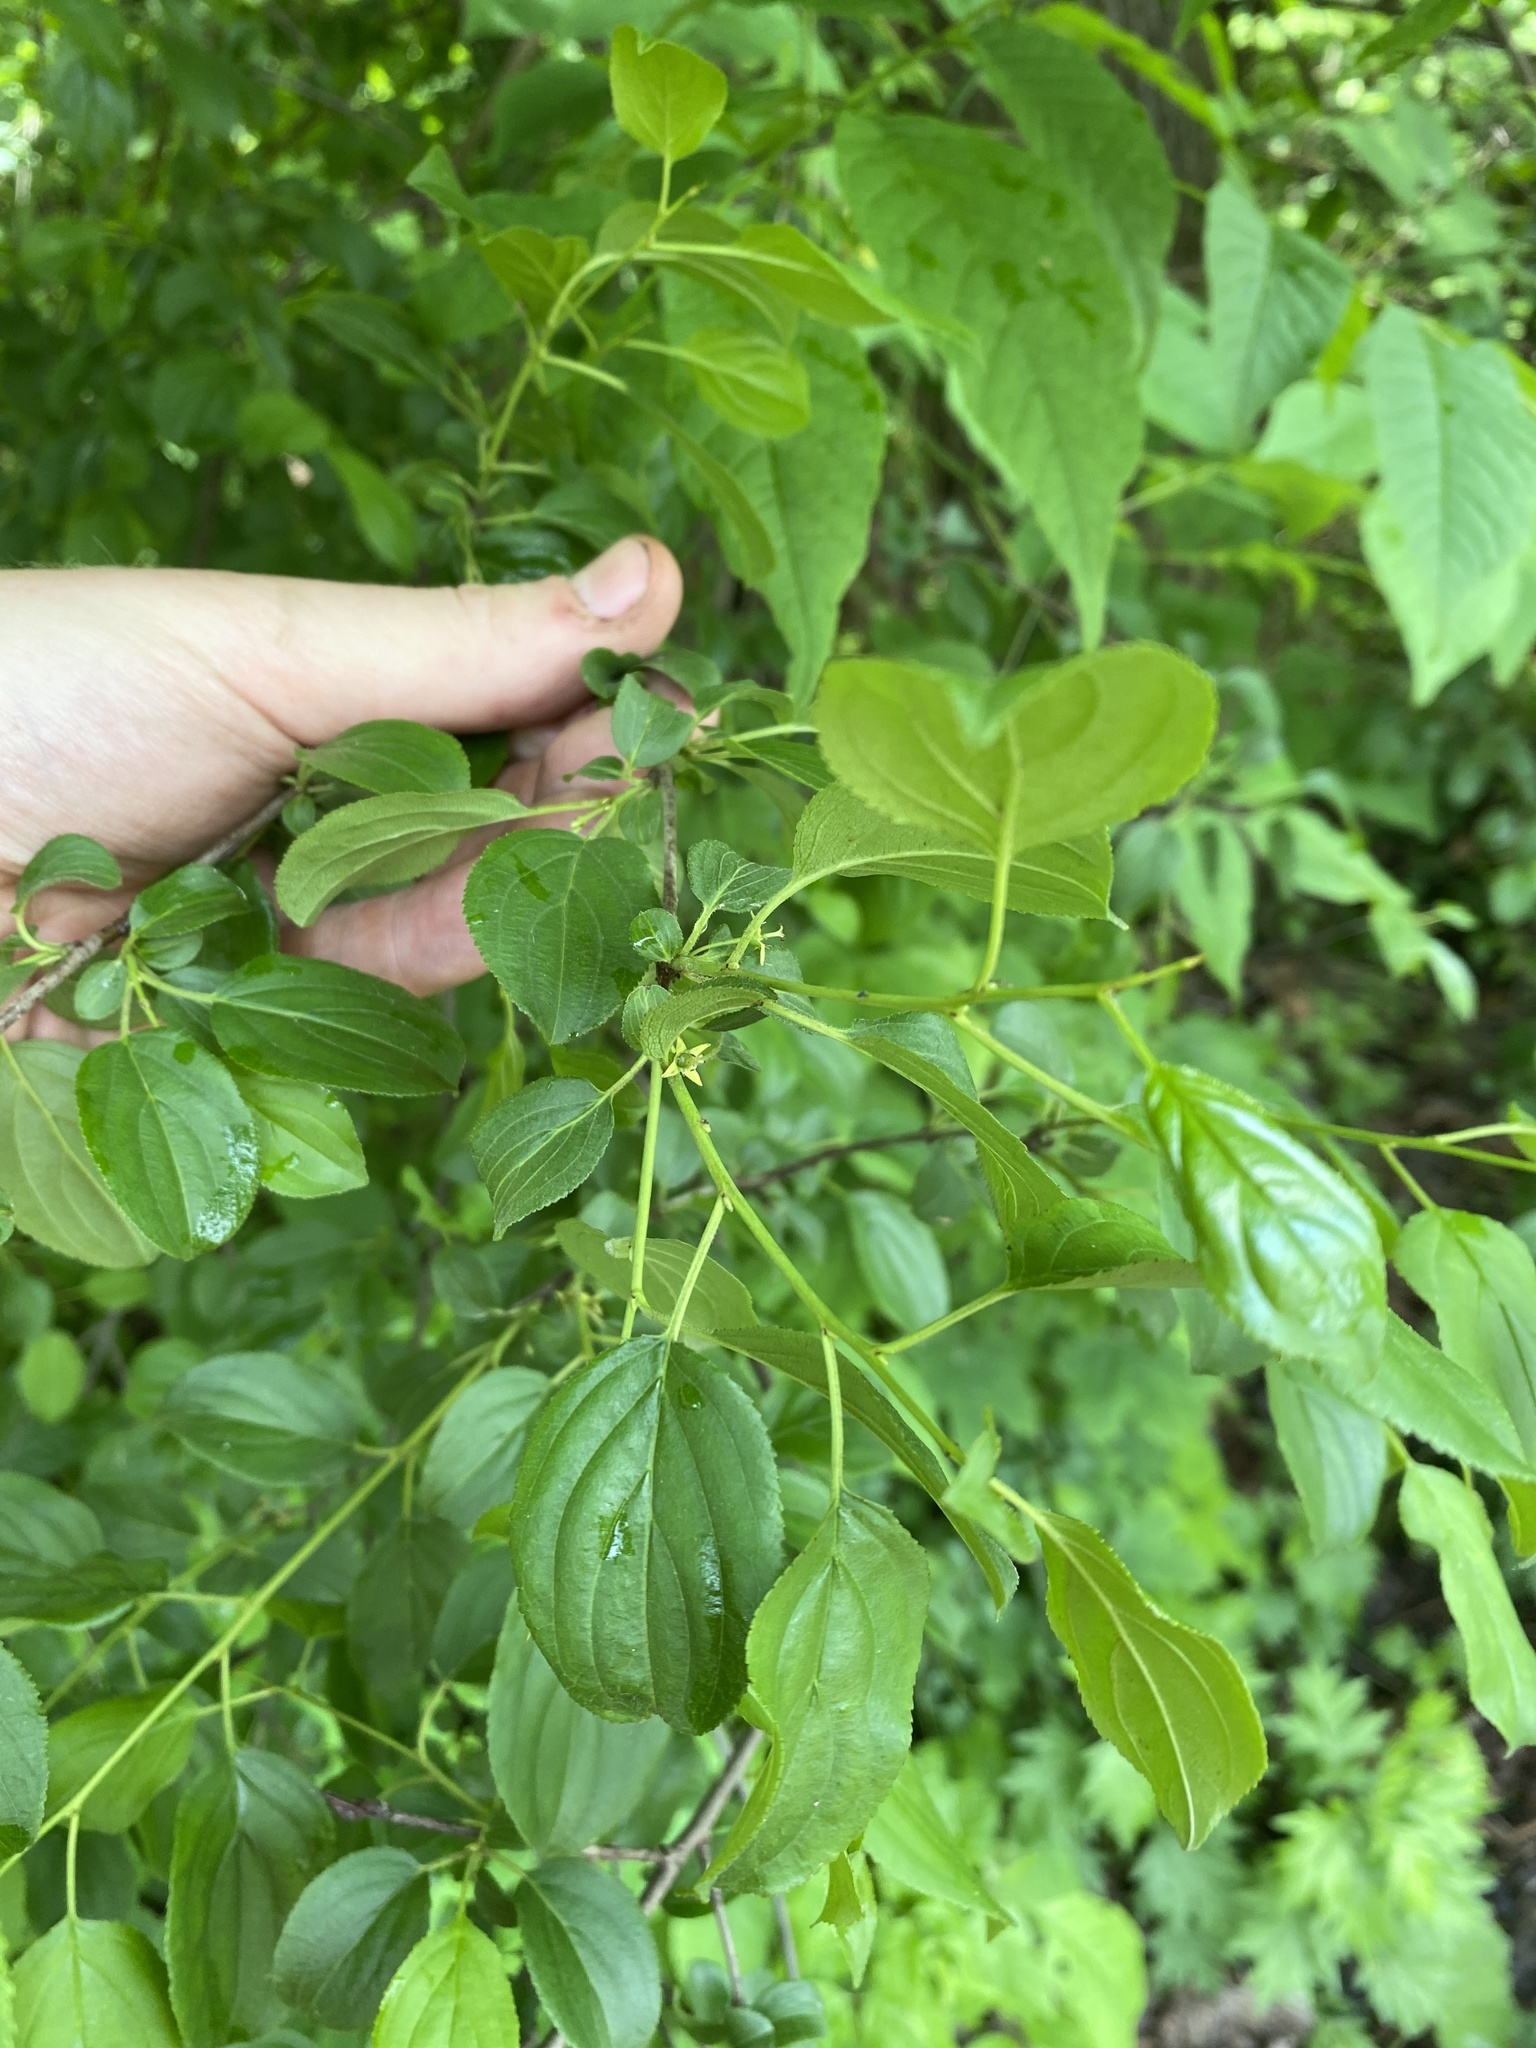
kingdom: Plantae
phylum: Tracheophyta
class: Magnoliopsida
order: Rosales
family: Rhamnaceae
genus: Rhamnus
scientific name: Rhamnus cathartica
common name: Common buckthorn
